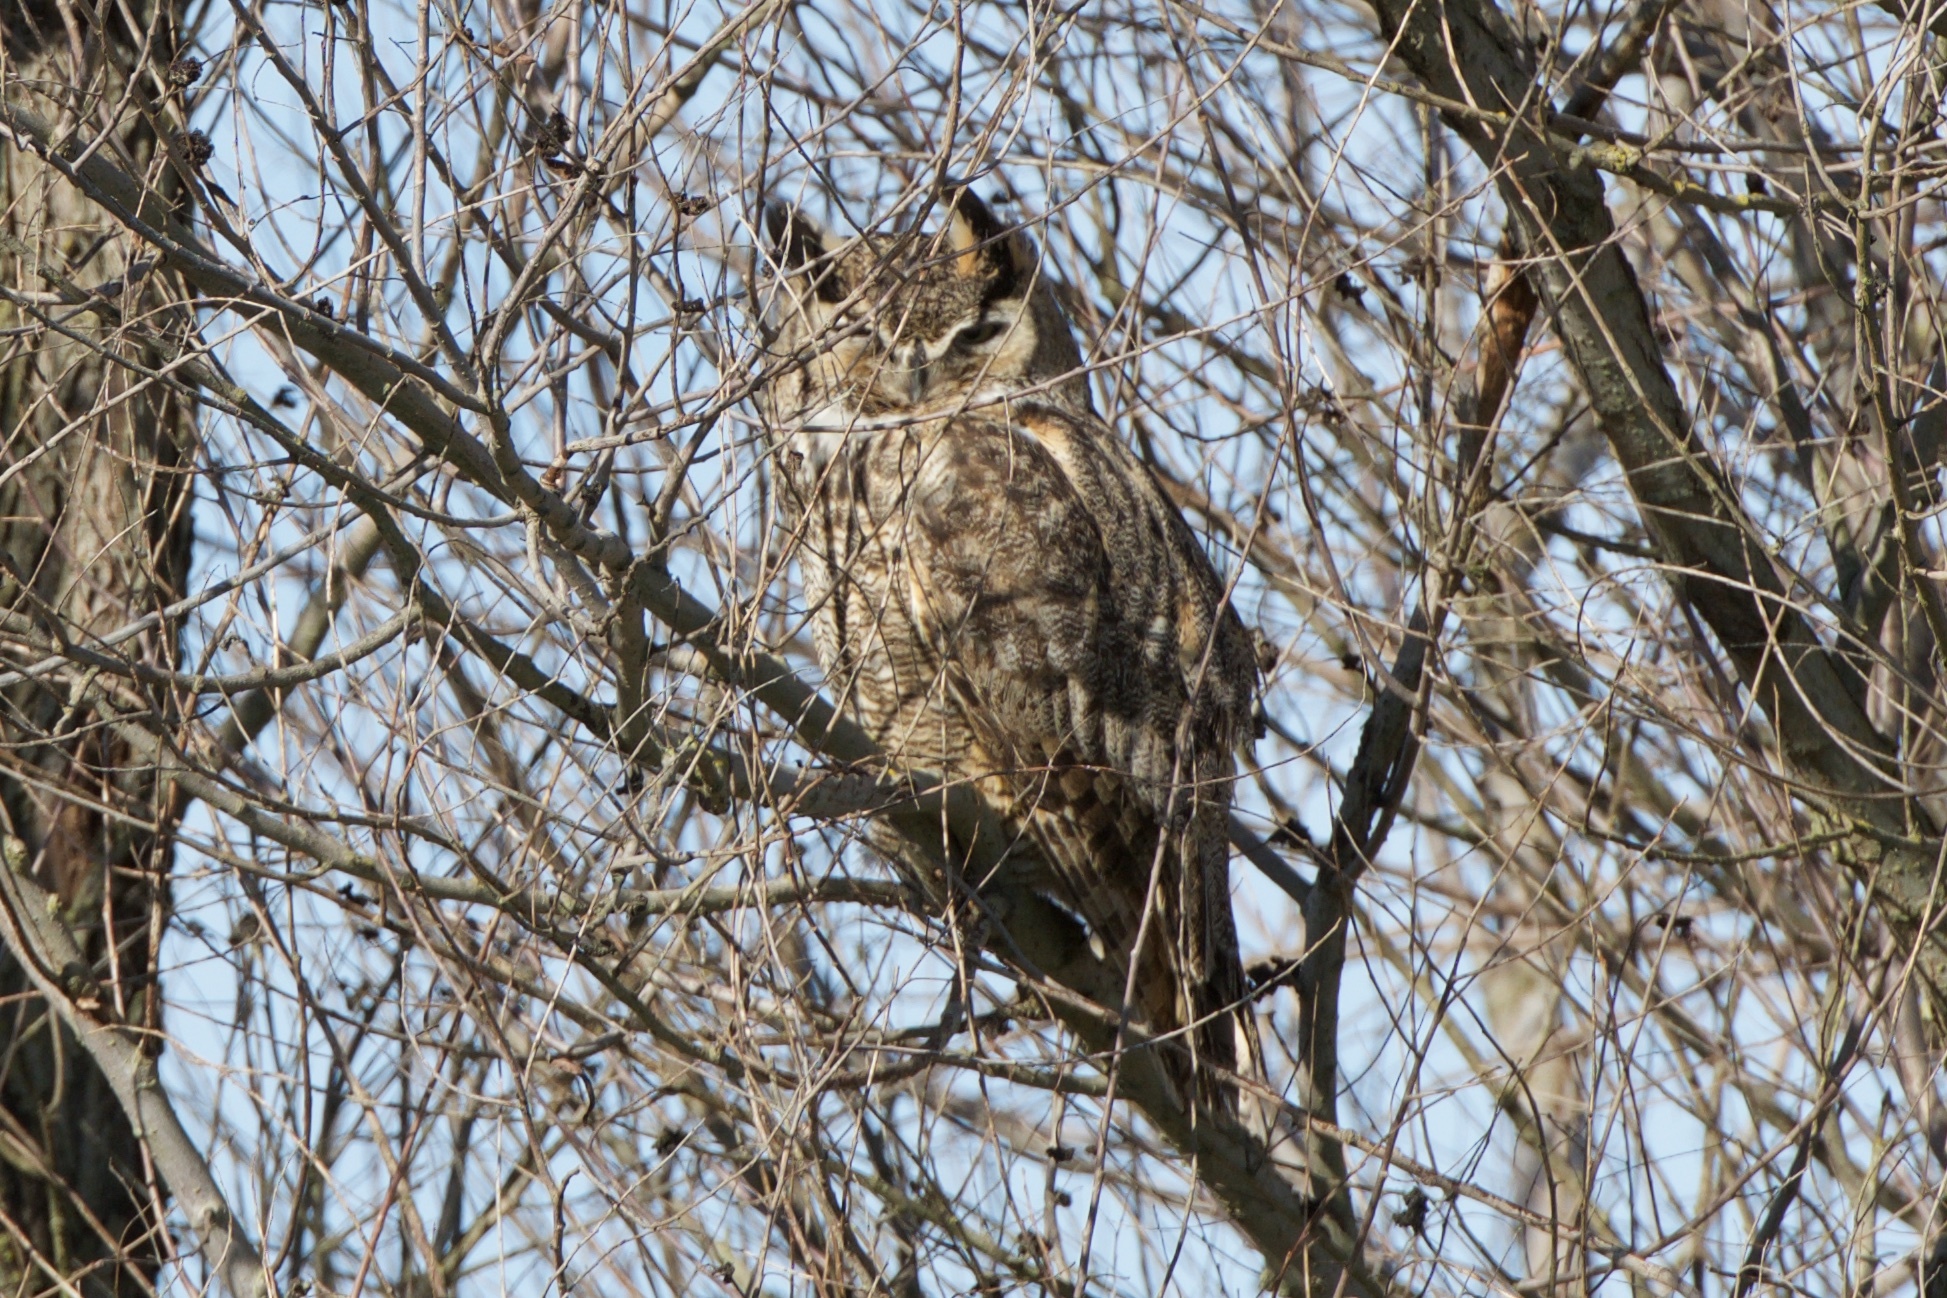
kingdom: Animalia
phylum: Chordata
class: Aves
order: Strigiformes
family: Strigidae
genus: Bubo
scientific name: Bubo virginianus
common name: Great horned owl
